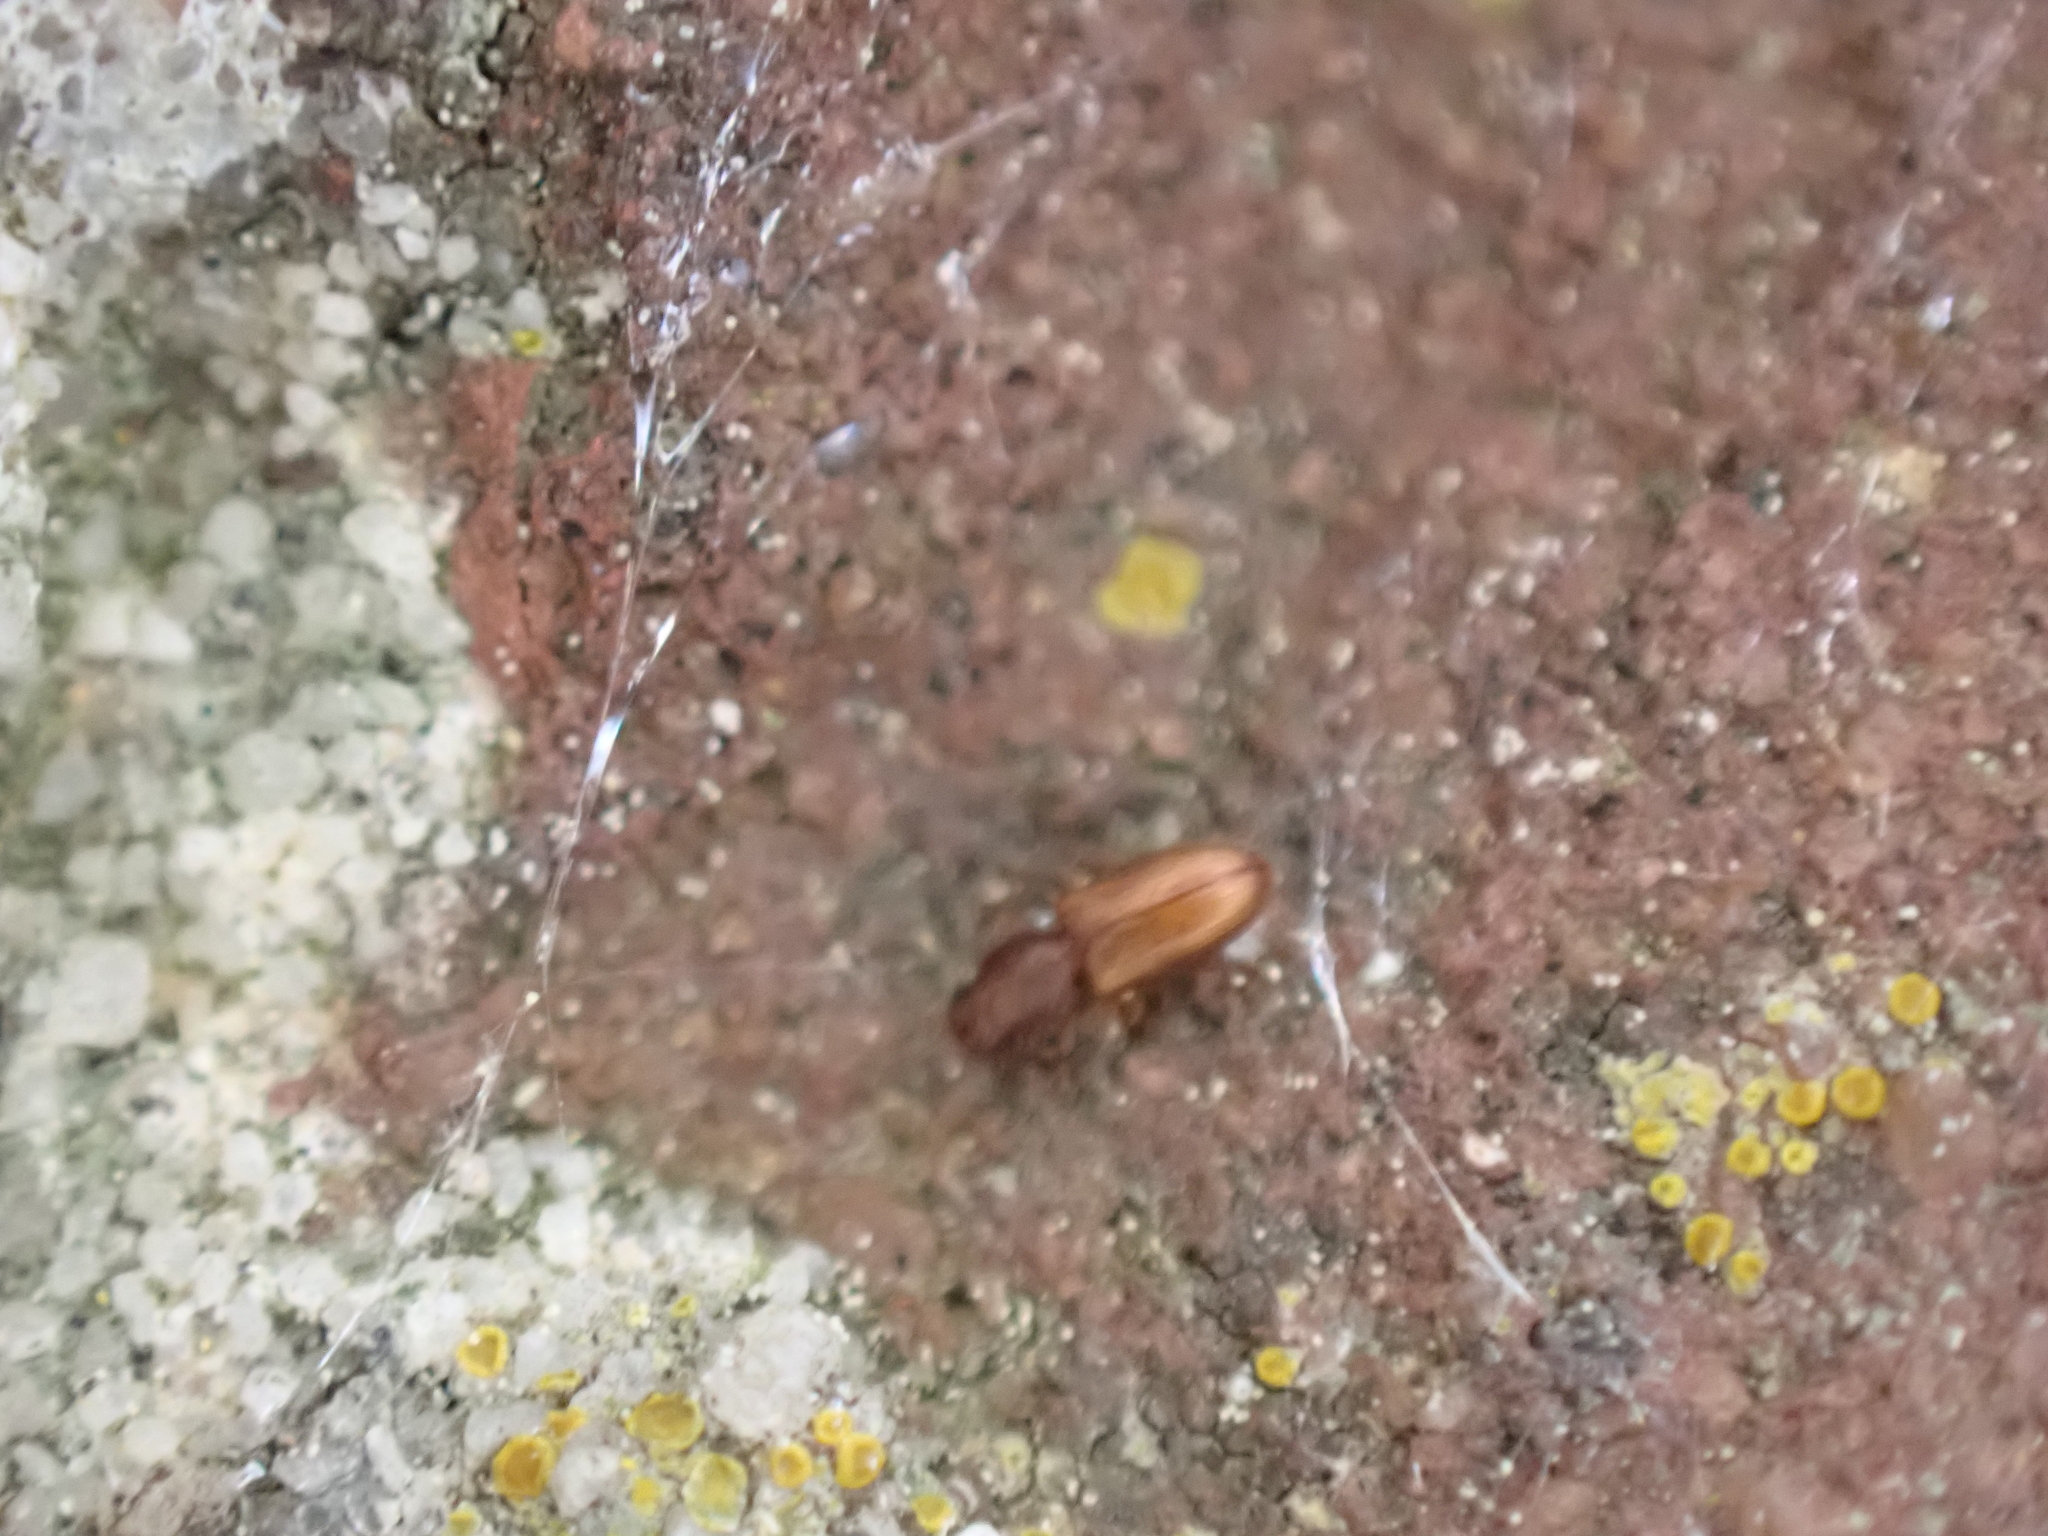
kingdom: Animalia
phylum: Arthropoda
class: Insecta
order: Coleoptera
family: Silvanidae
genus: Ahasverus
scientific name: Ahasverus advena
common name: Foreign grain beetle
